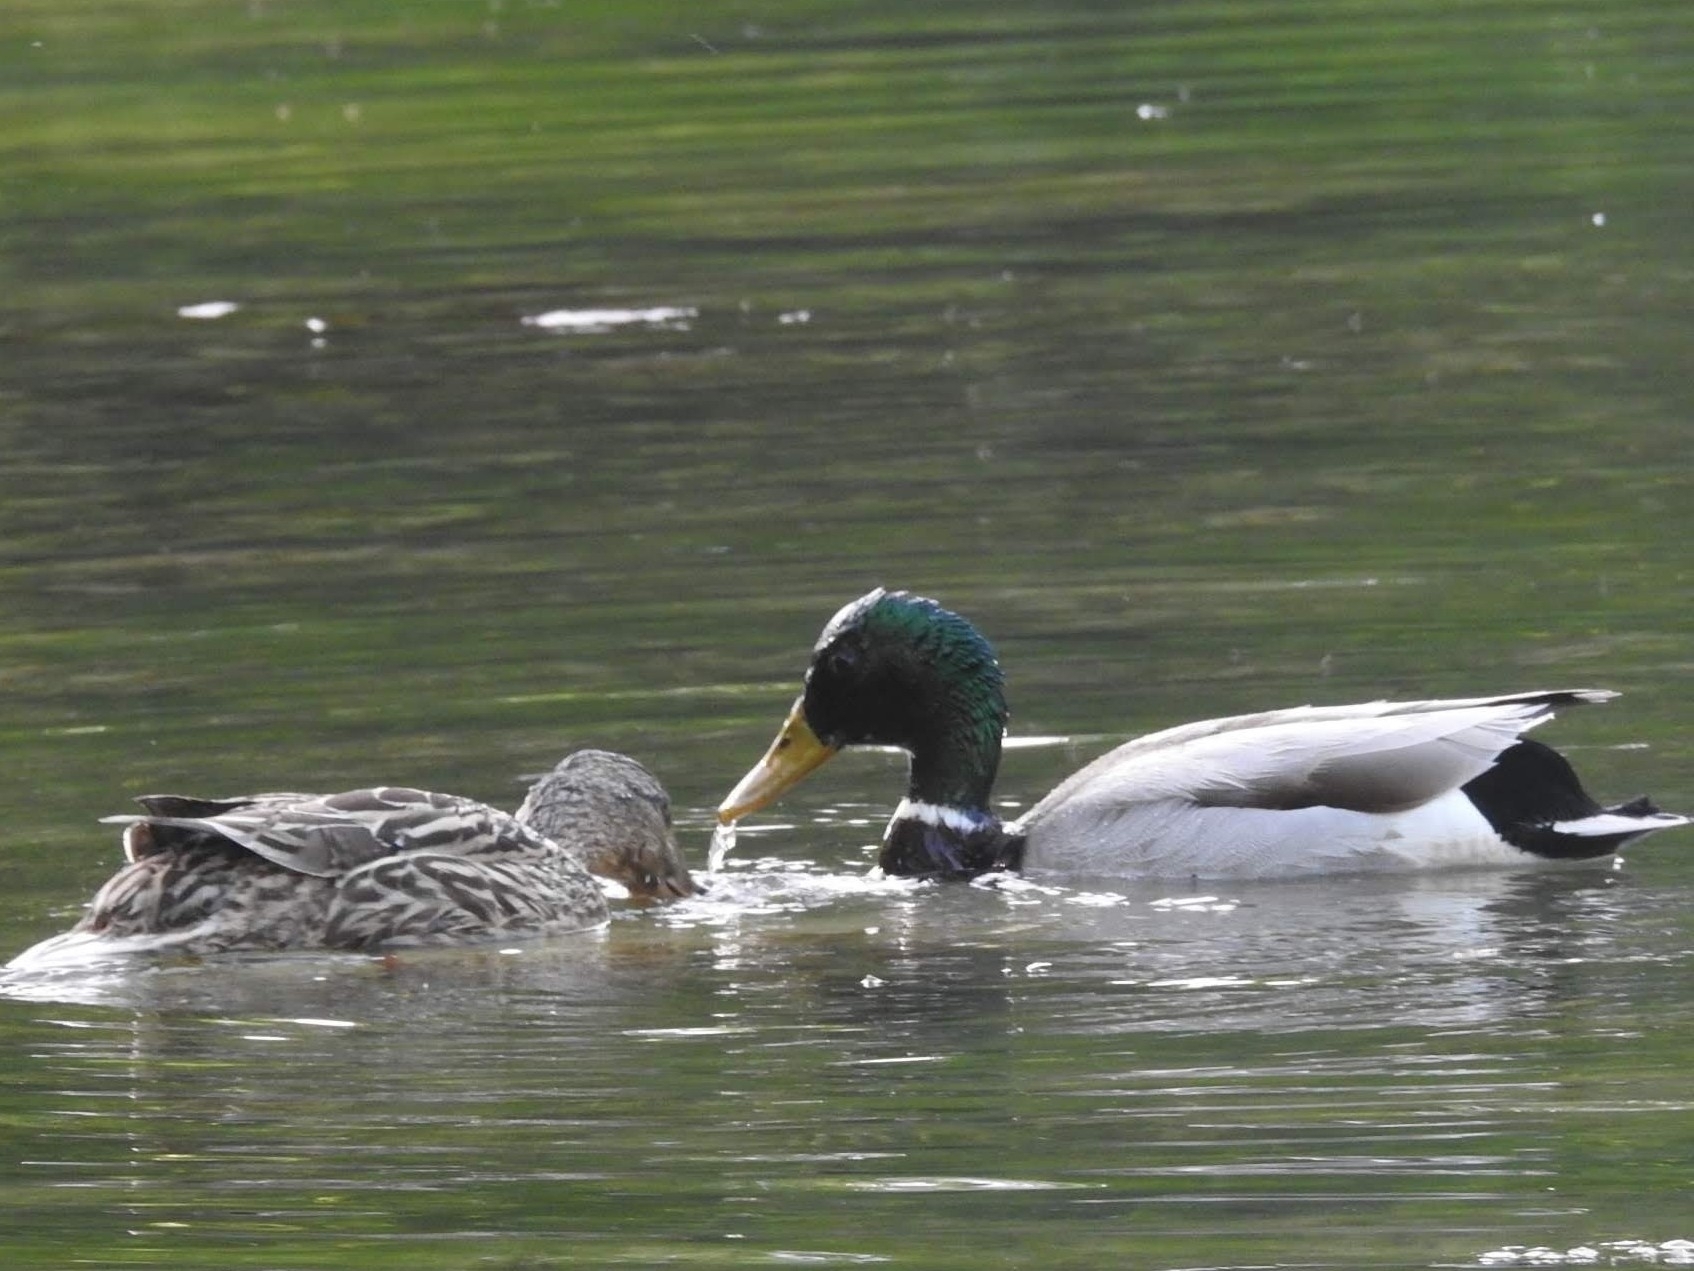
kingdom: Animalia
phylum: Chordata
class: Aves
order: Anseriformes
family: Anatidae
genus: Anas
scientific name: Anas platyrhynchos
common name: Mallard
